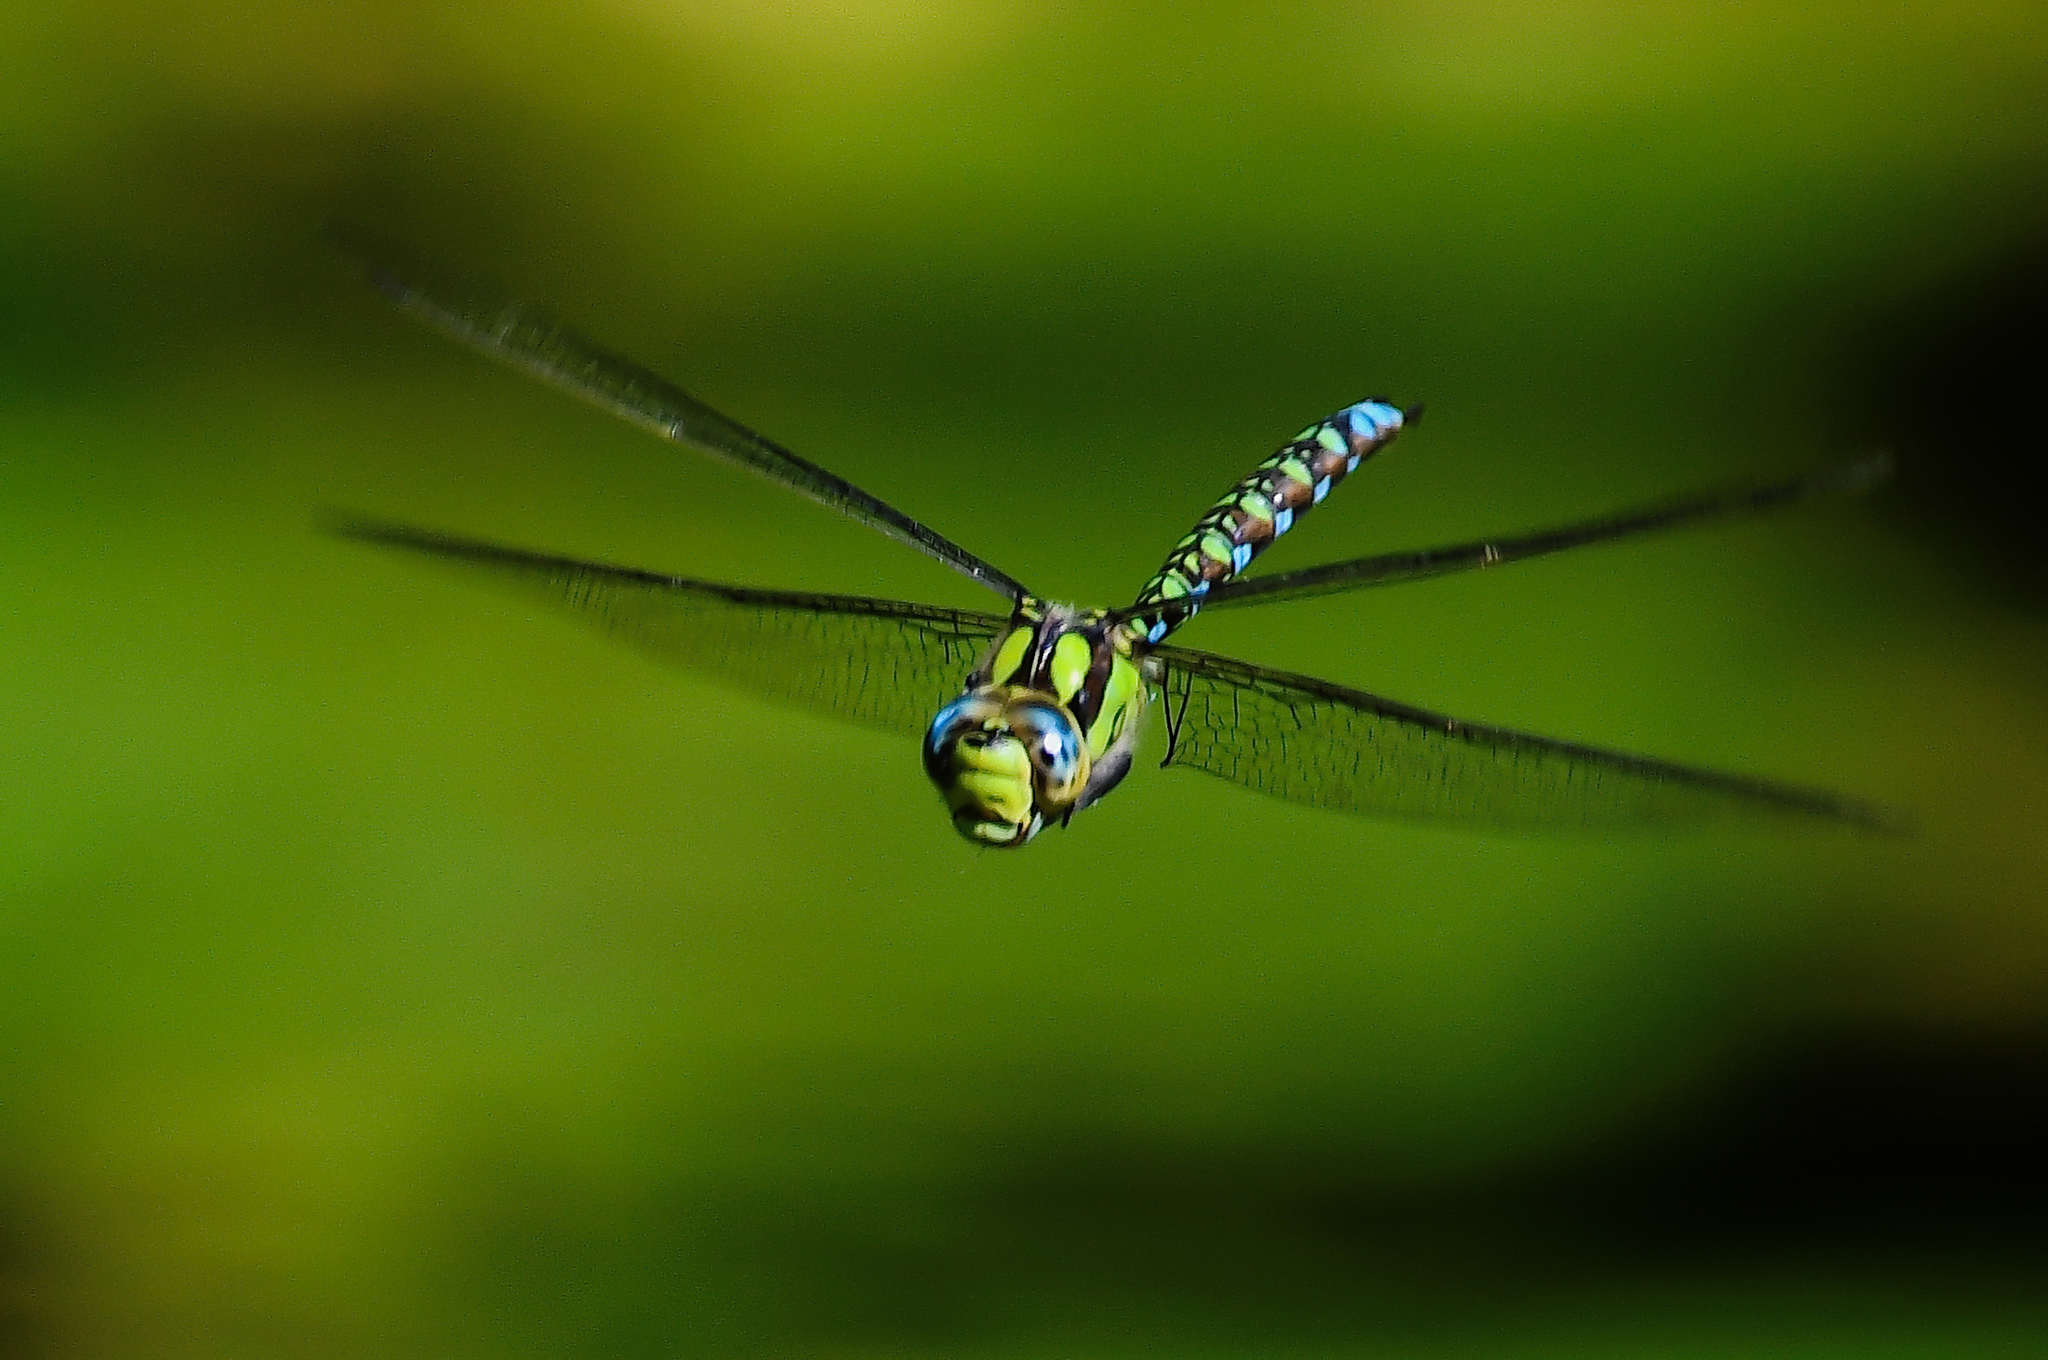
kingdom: Animalia
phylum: Arthropoda
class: Insecta
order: Odonata
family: Aeshnidae
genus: Aeshna
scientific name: Aeshna cyanea
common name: Southern hawker
